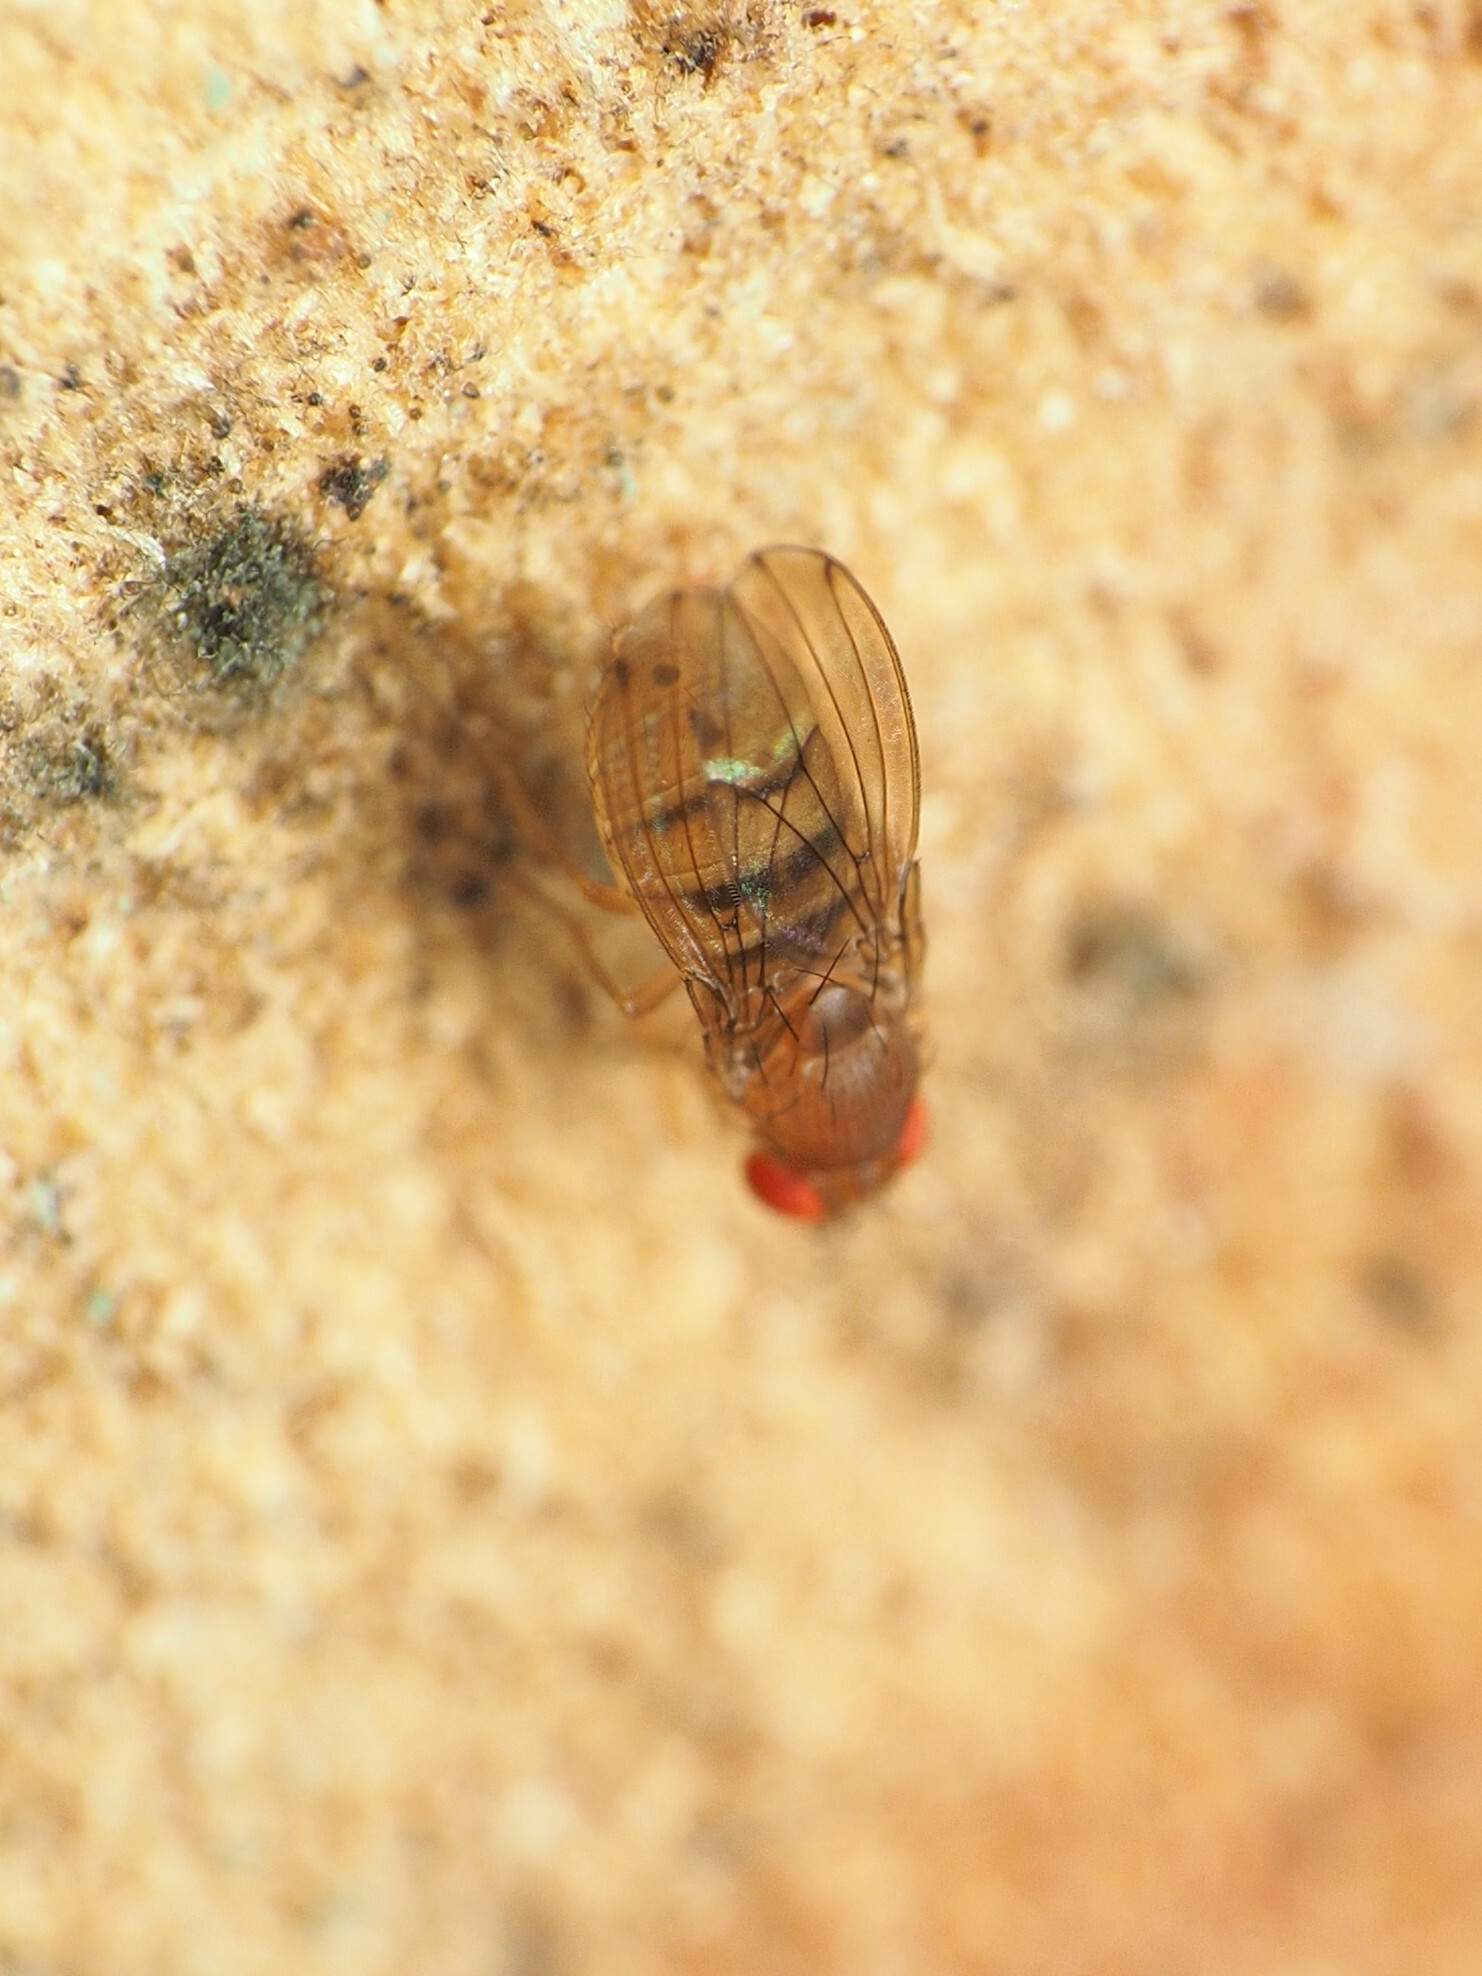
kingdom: Animalia
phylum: Arthropoda
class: Insecta
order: Diptera
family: Drosophilidae
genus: Drosophila
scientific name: Drosophila tripunctata
